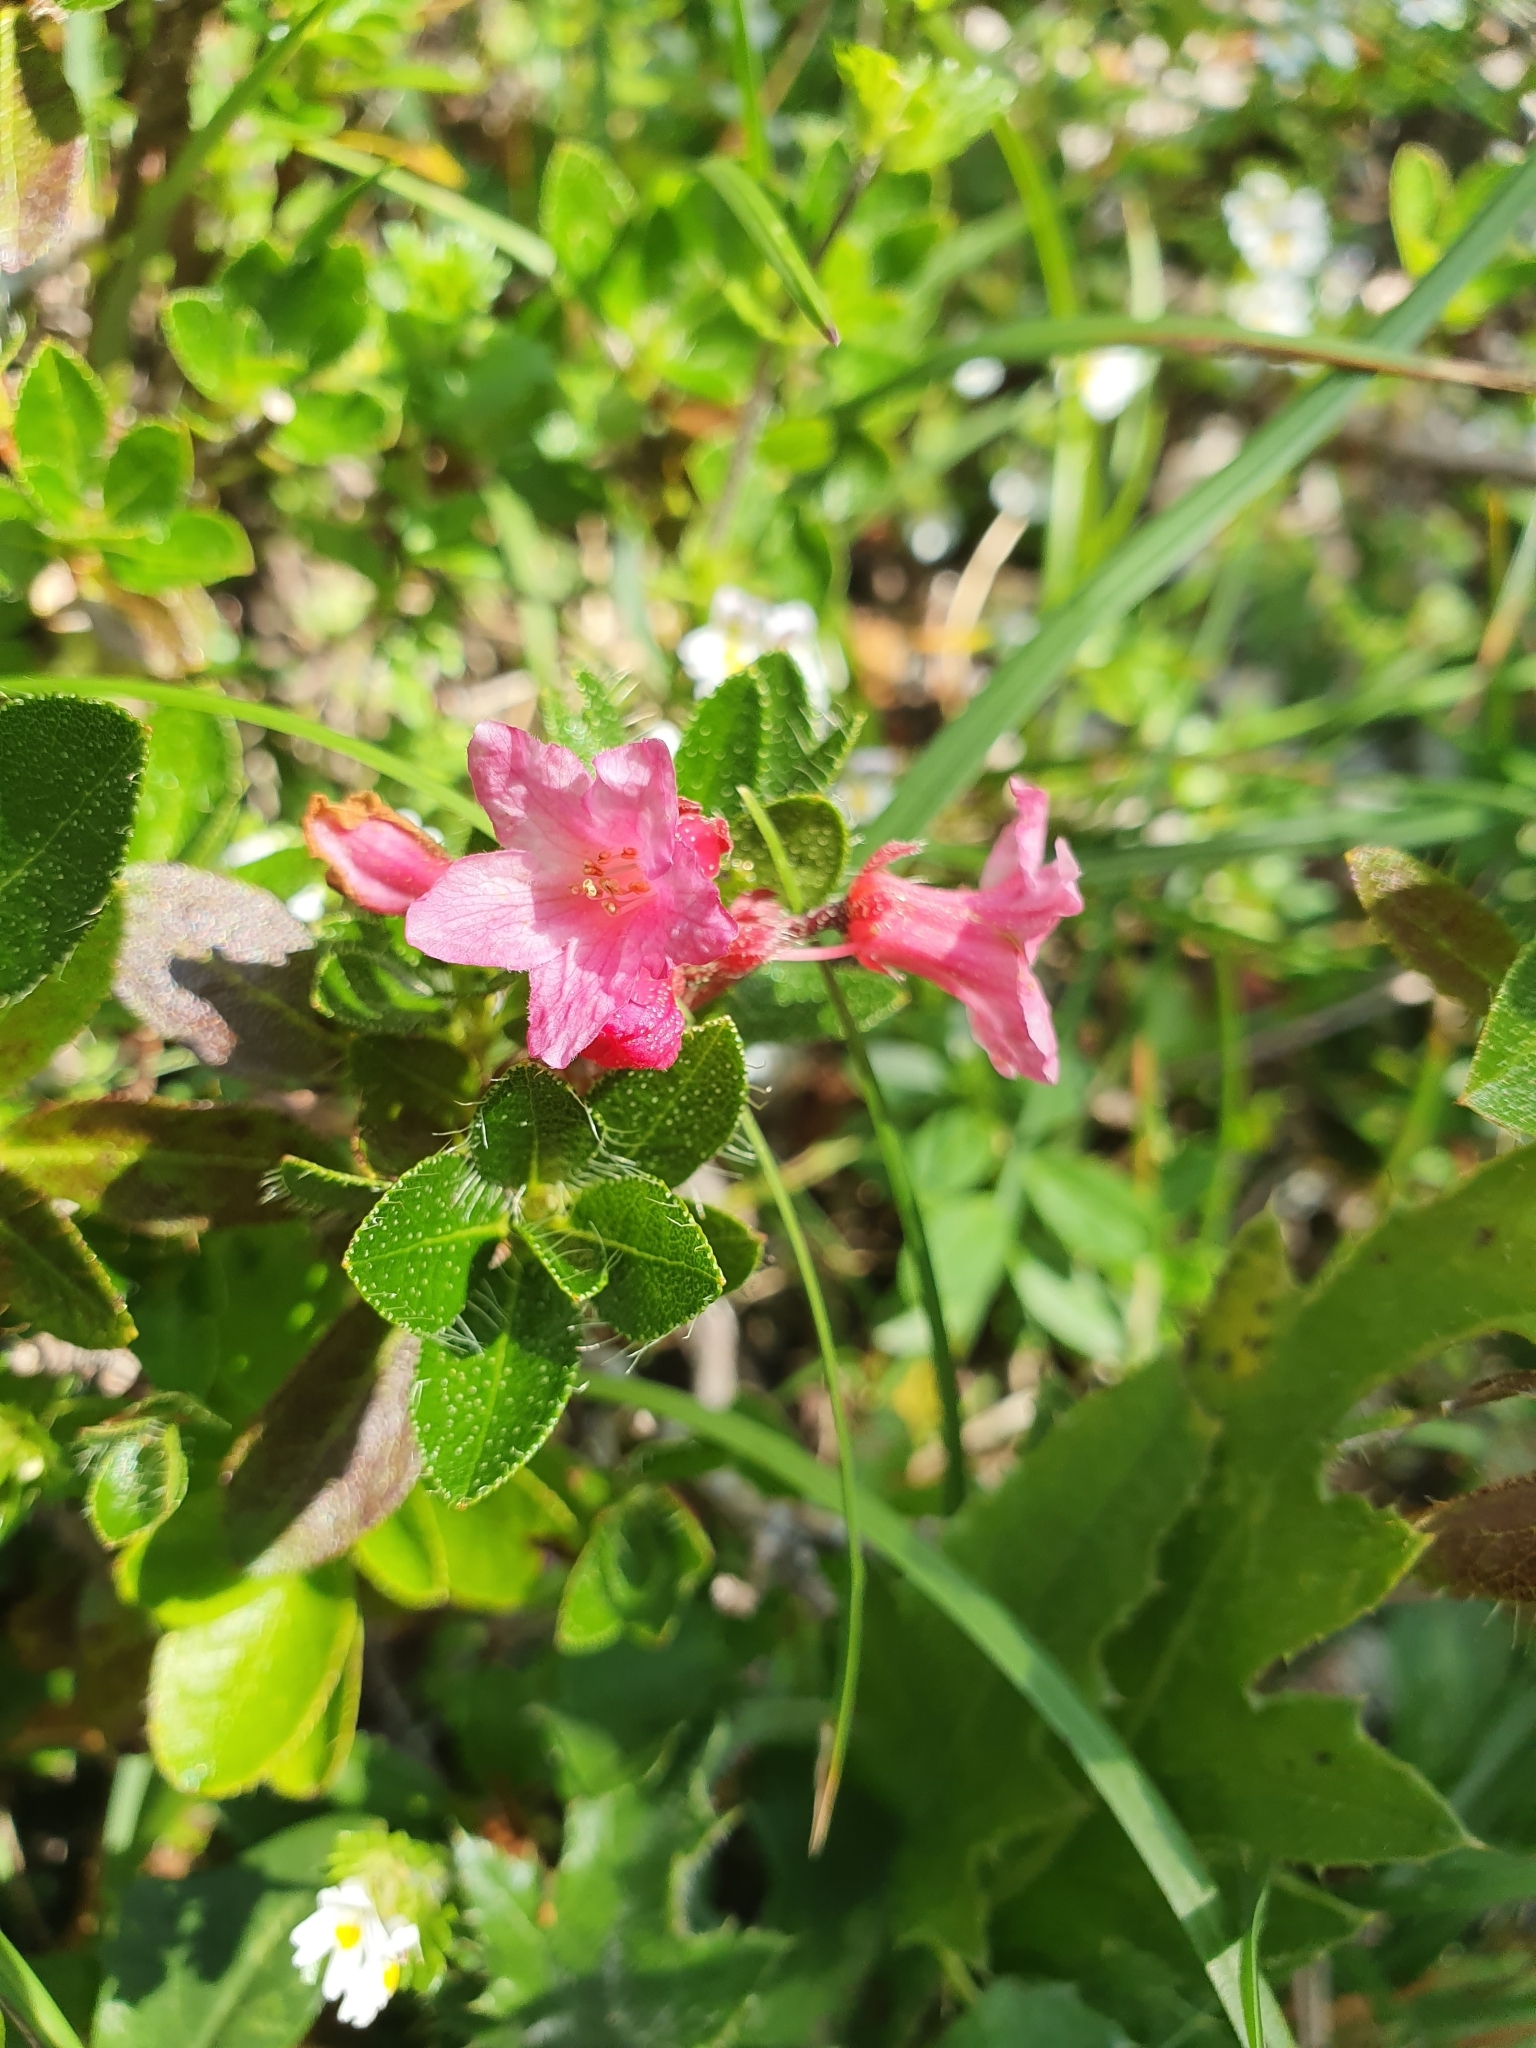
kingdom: Plantae
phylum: Tracheophyta
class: Magnoliopsida
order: Ericales
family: Ericaceae
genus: Rhododendron
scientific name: Rhododendron hirsutum
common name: Hairy alpenrose
